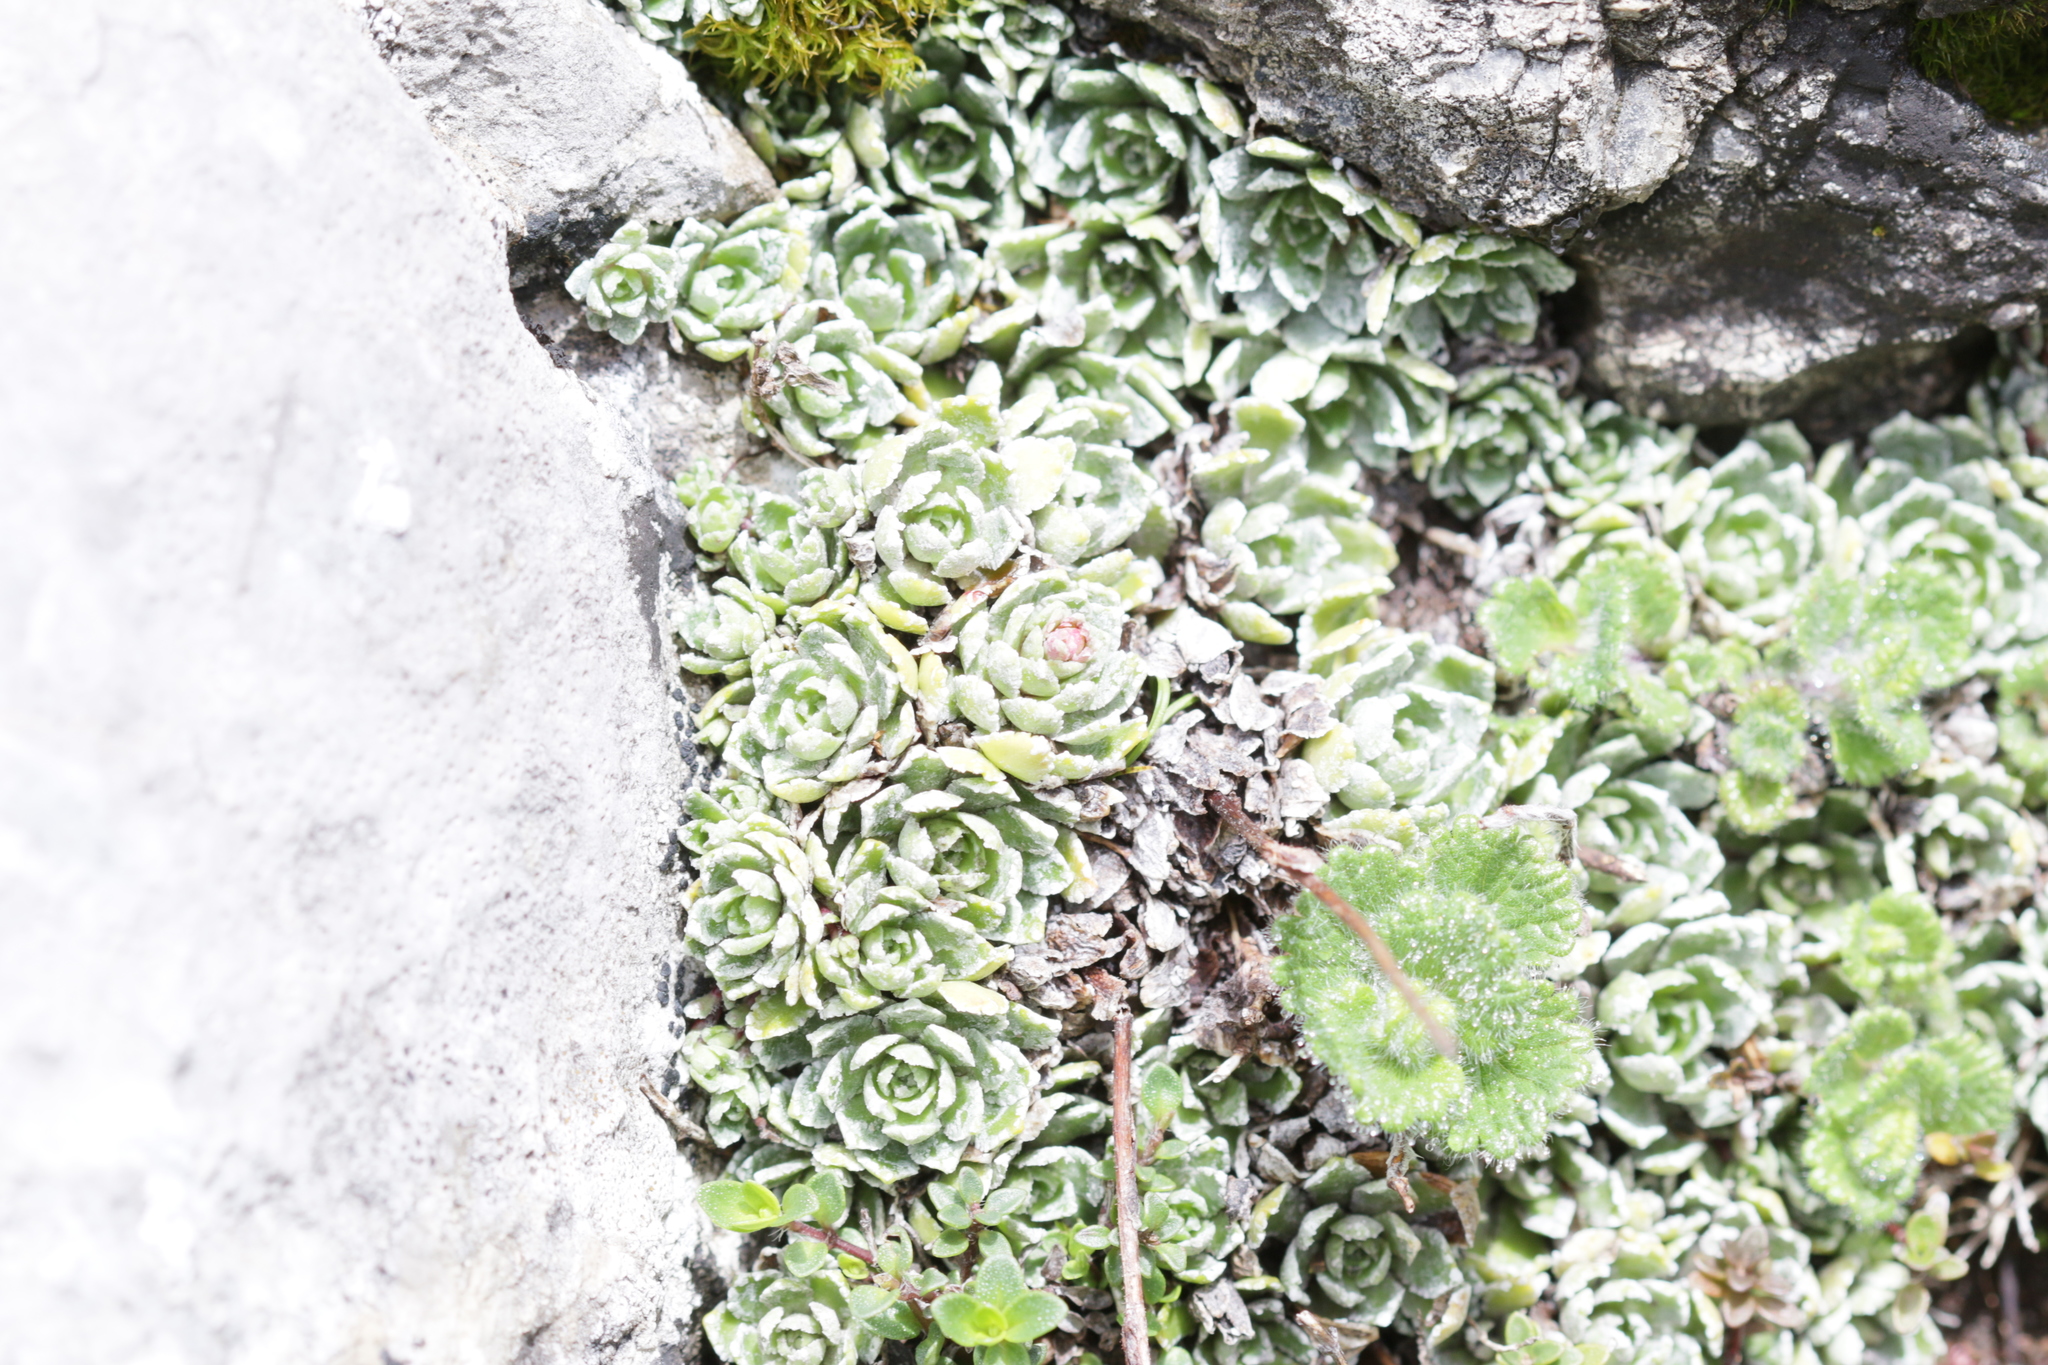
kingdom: Plantae
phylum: Tracheophyta
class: Magnoliopsida
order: Saxifragales
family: Saxifragaceae
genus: Saxifraga
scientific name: Saxifraga paniculata
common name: Livelong saxifrage
